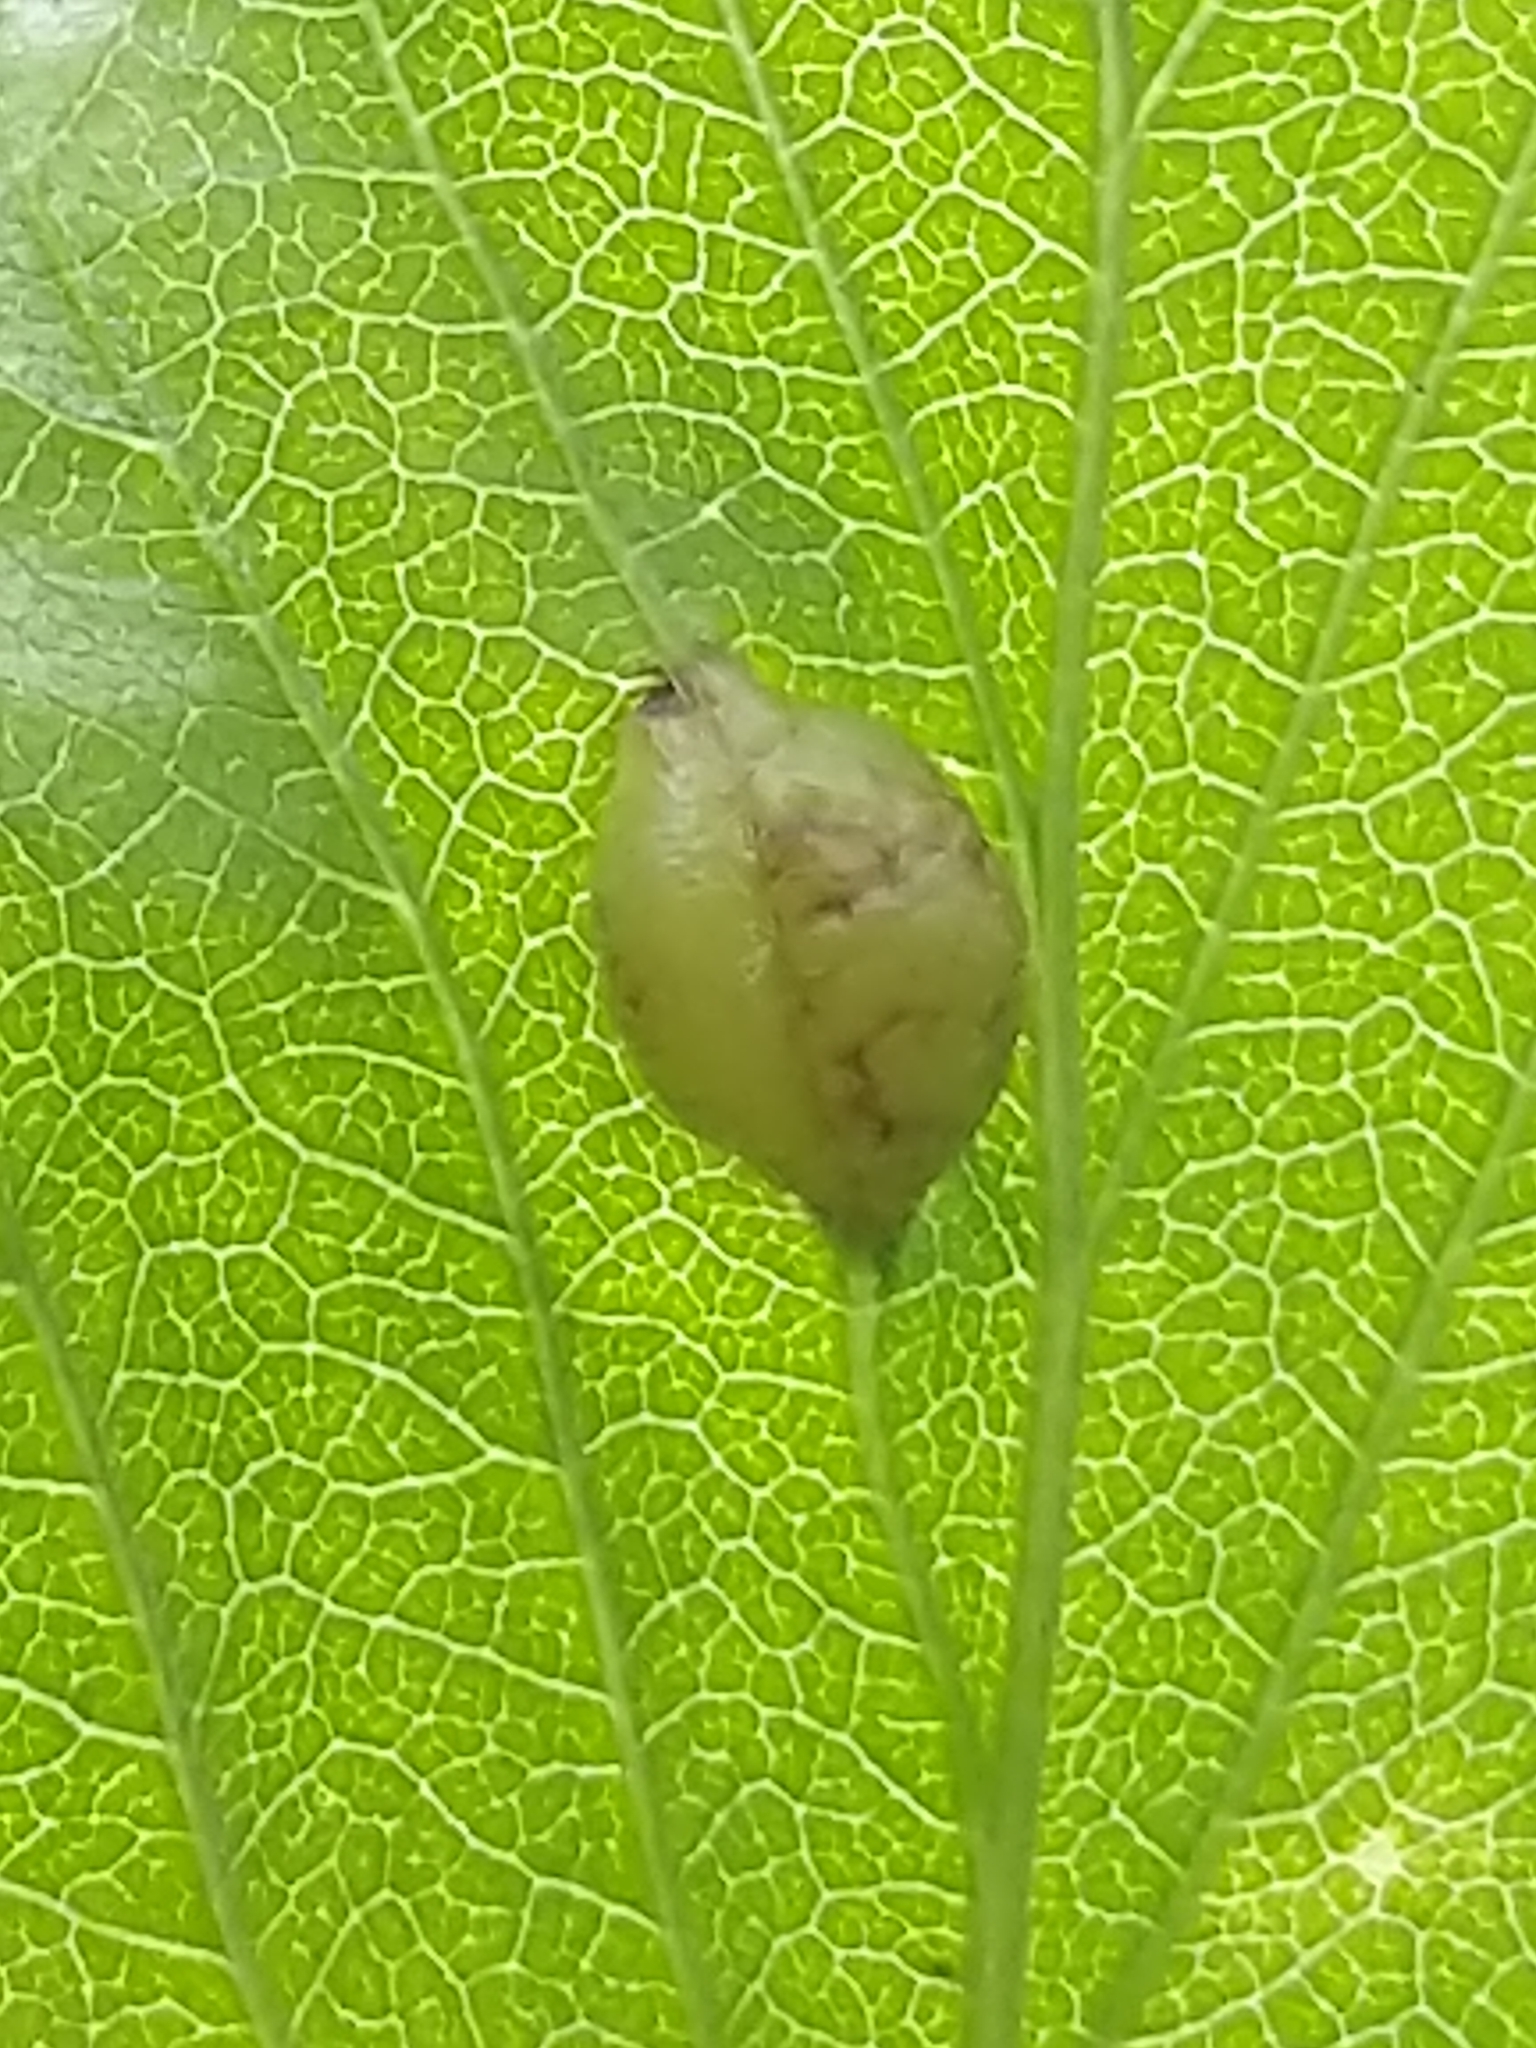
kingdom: Animalia
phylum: Arthropoda
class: Insecta
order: Diptera
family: Cecidomyiidae
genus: Blaesodiplosis
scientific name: Blaesodiplosis venae
